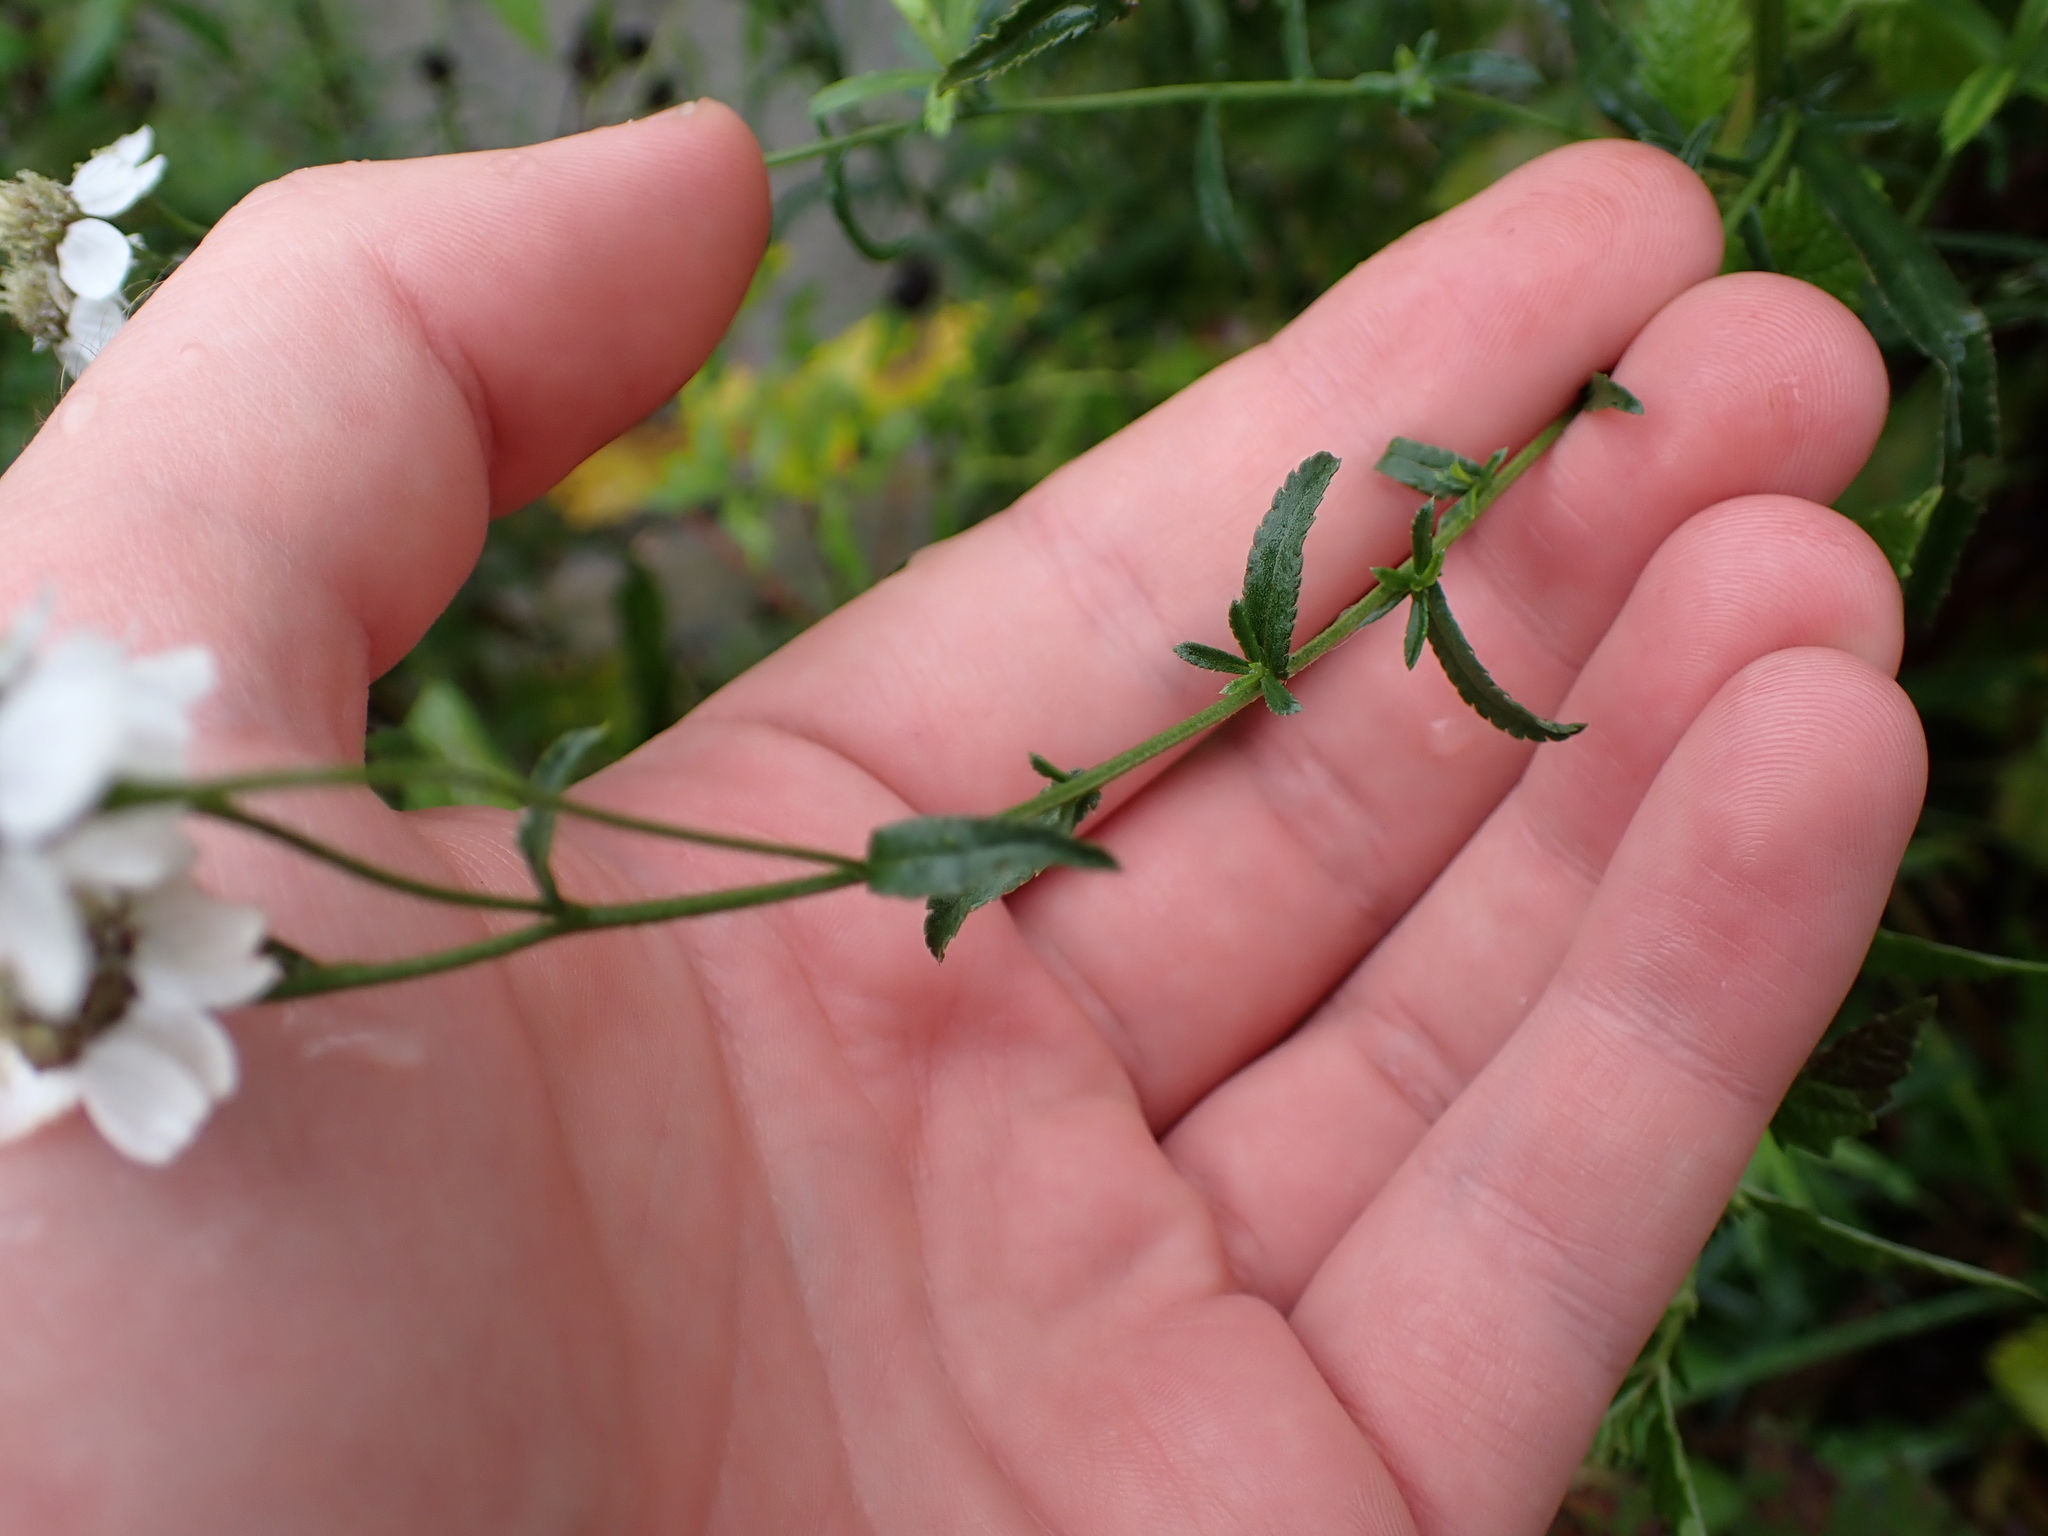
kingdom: Plantae
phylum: Tracheophyta
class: Magnoliopsida
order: Asterales
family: Asteraceae
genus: Achillea
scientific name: Achillea ptarmica
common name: Sneezeweed
